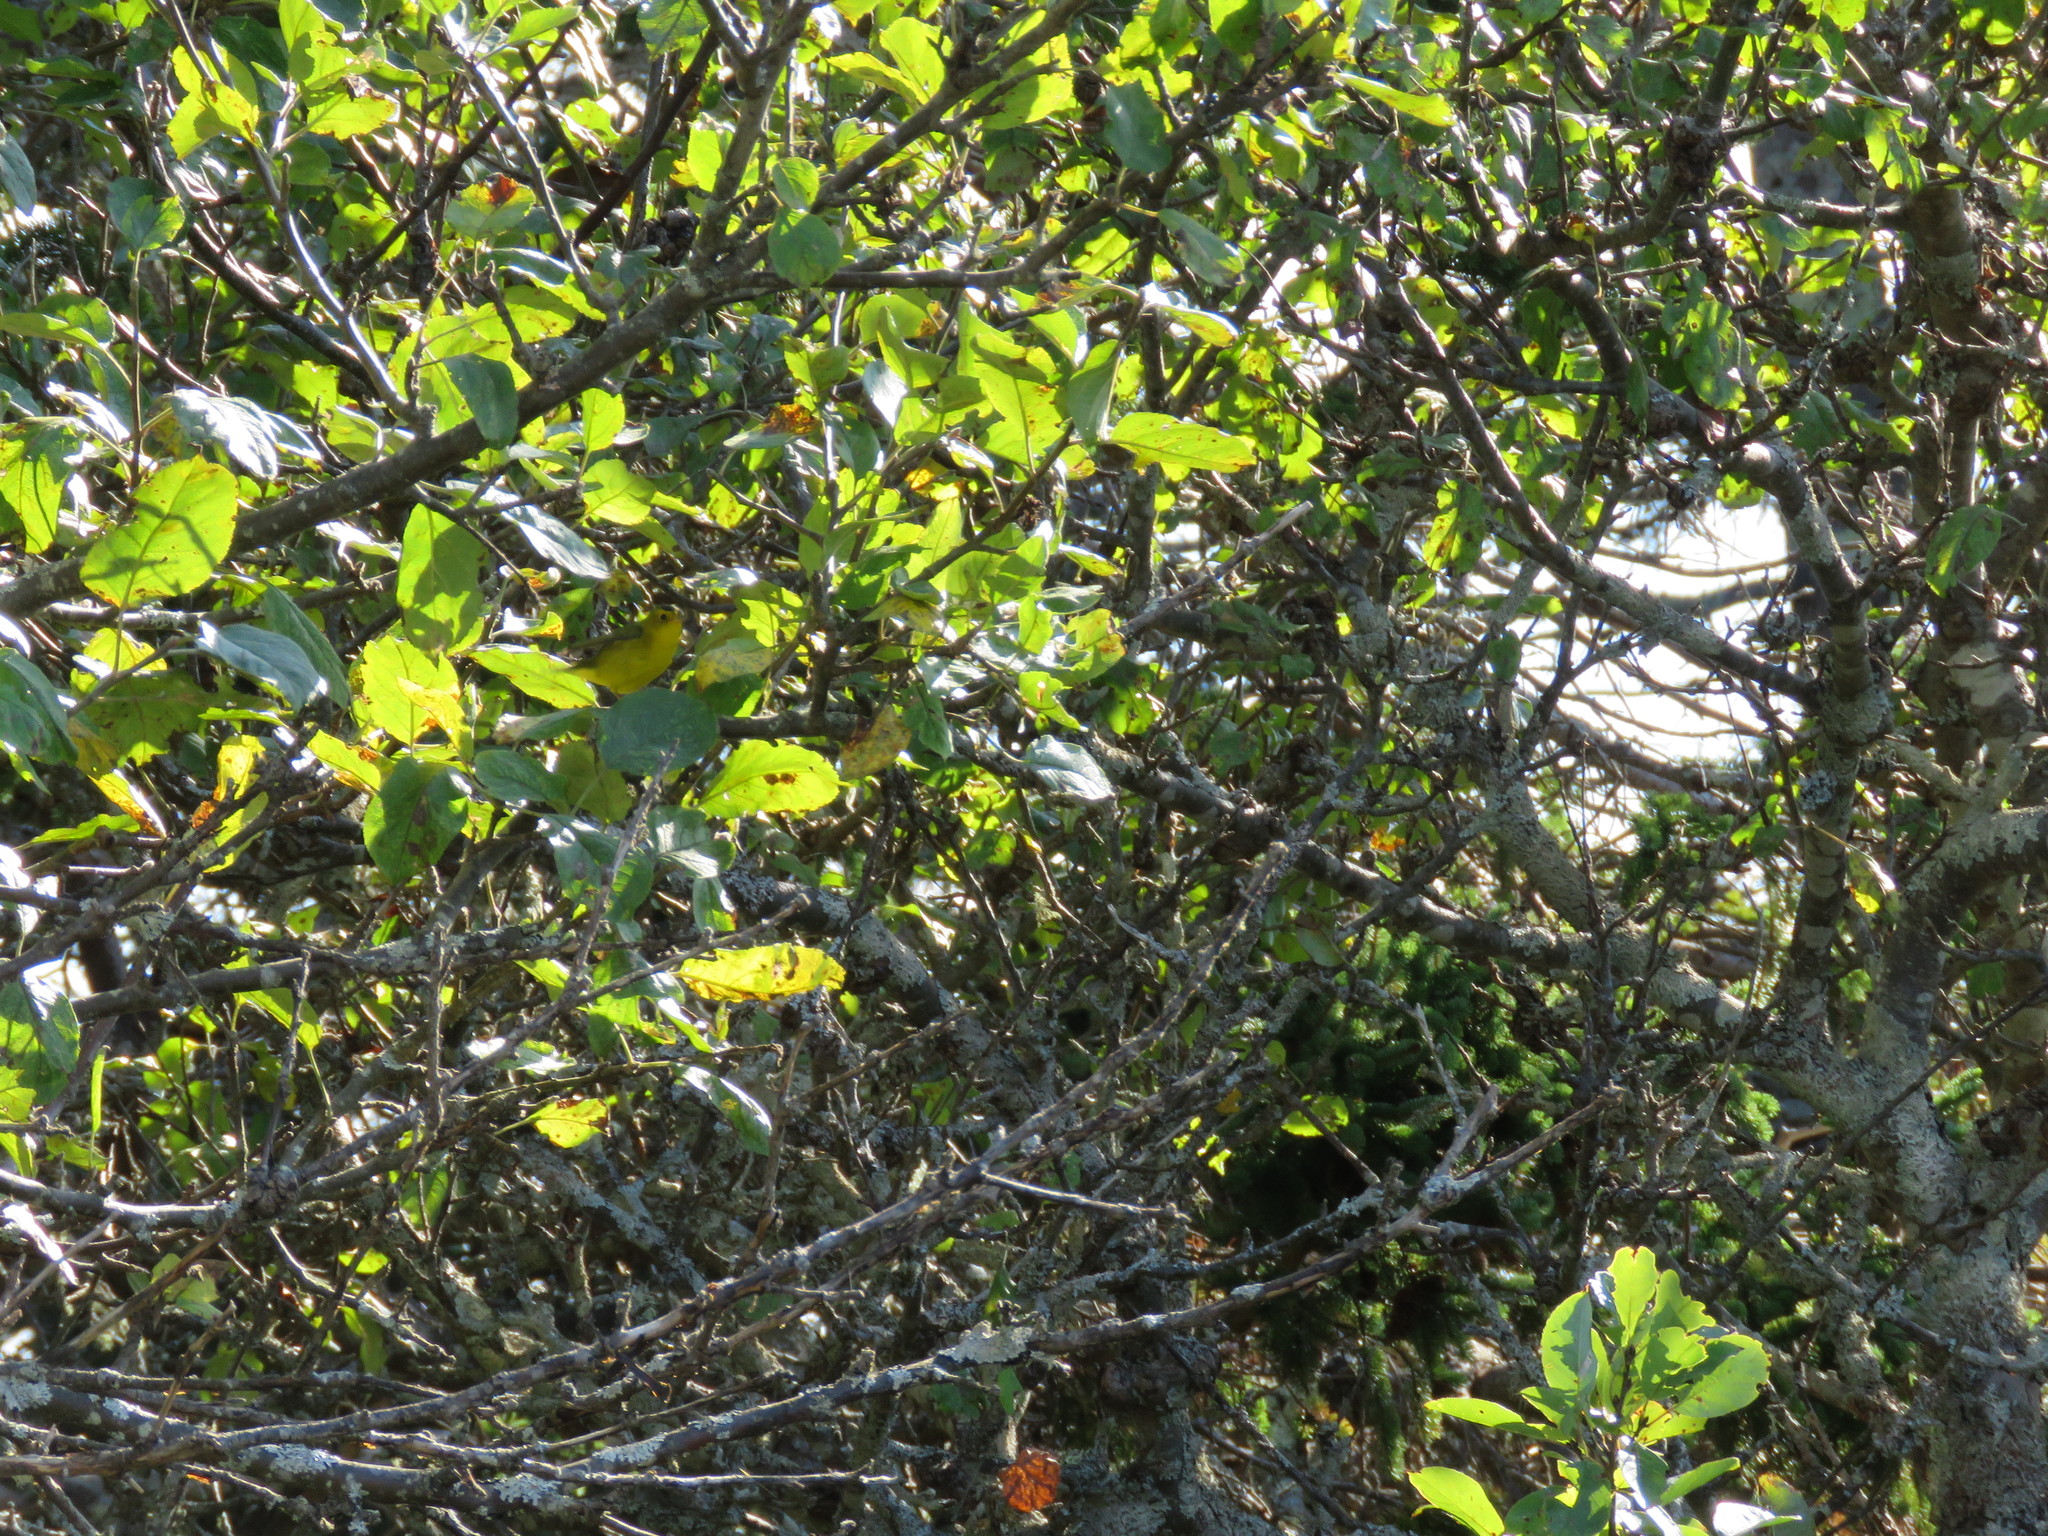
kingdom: Animalia
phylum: Chordata
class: Aves
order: Passeriformes
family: Parulidae
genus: Cardellina
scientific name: Cardellina pusilla
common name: Wilson's warbler
